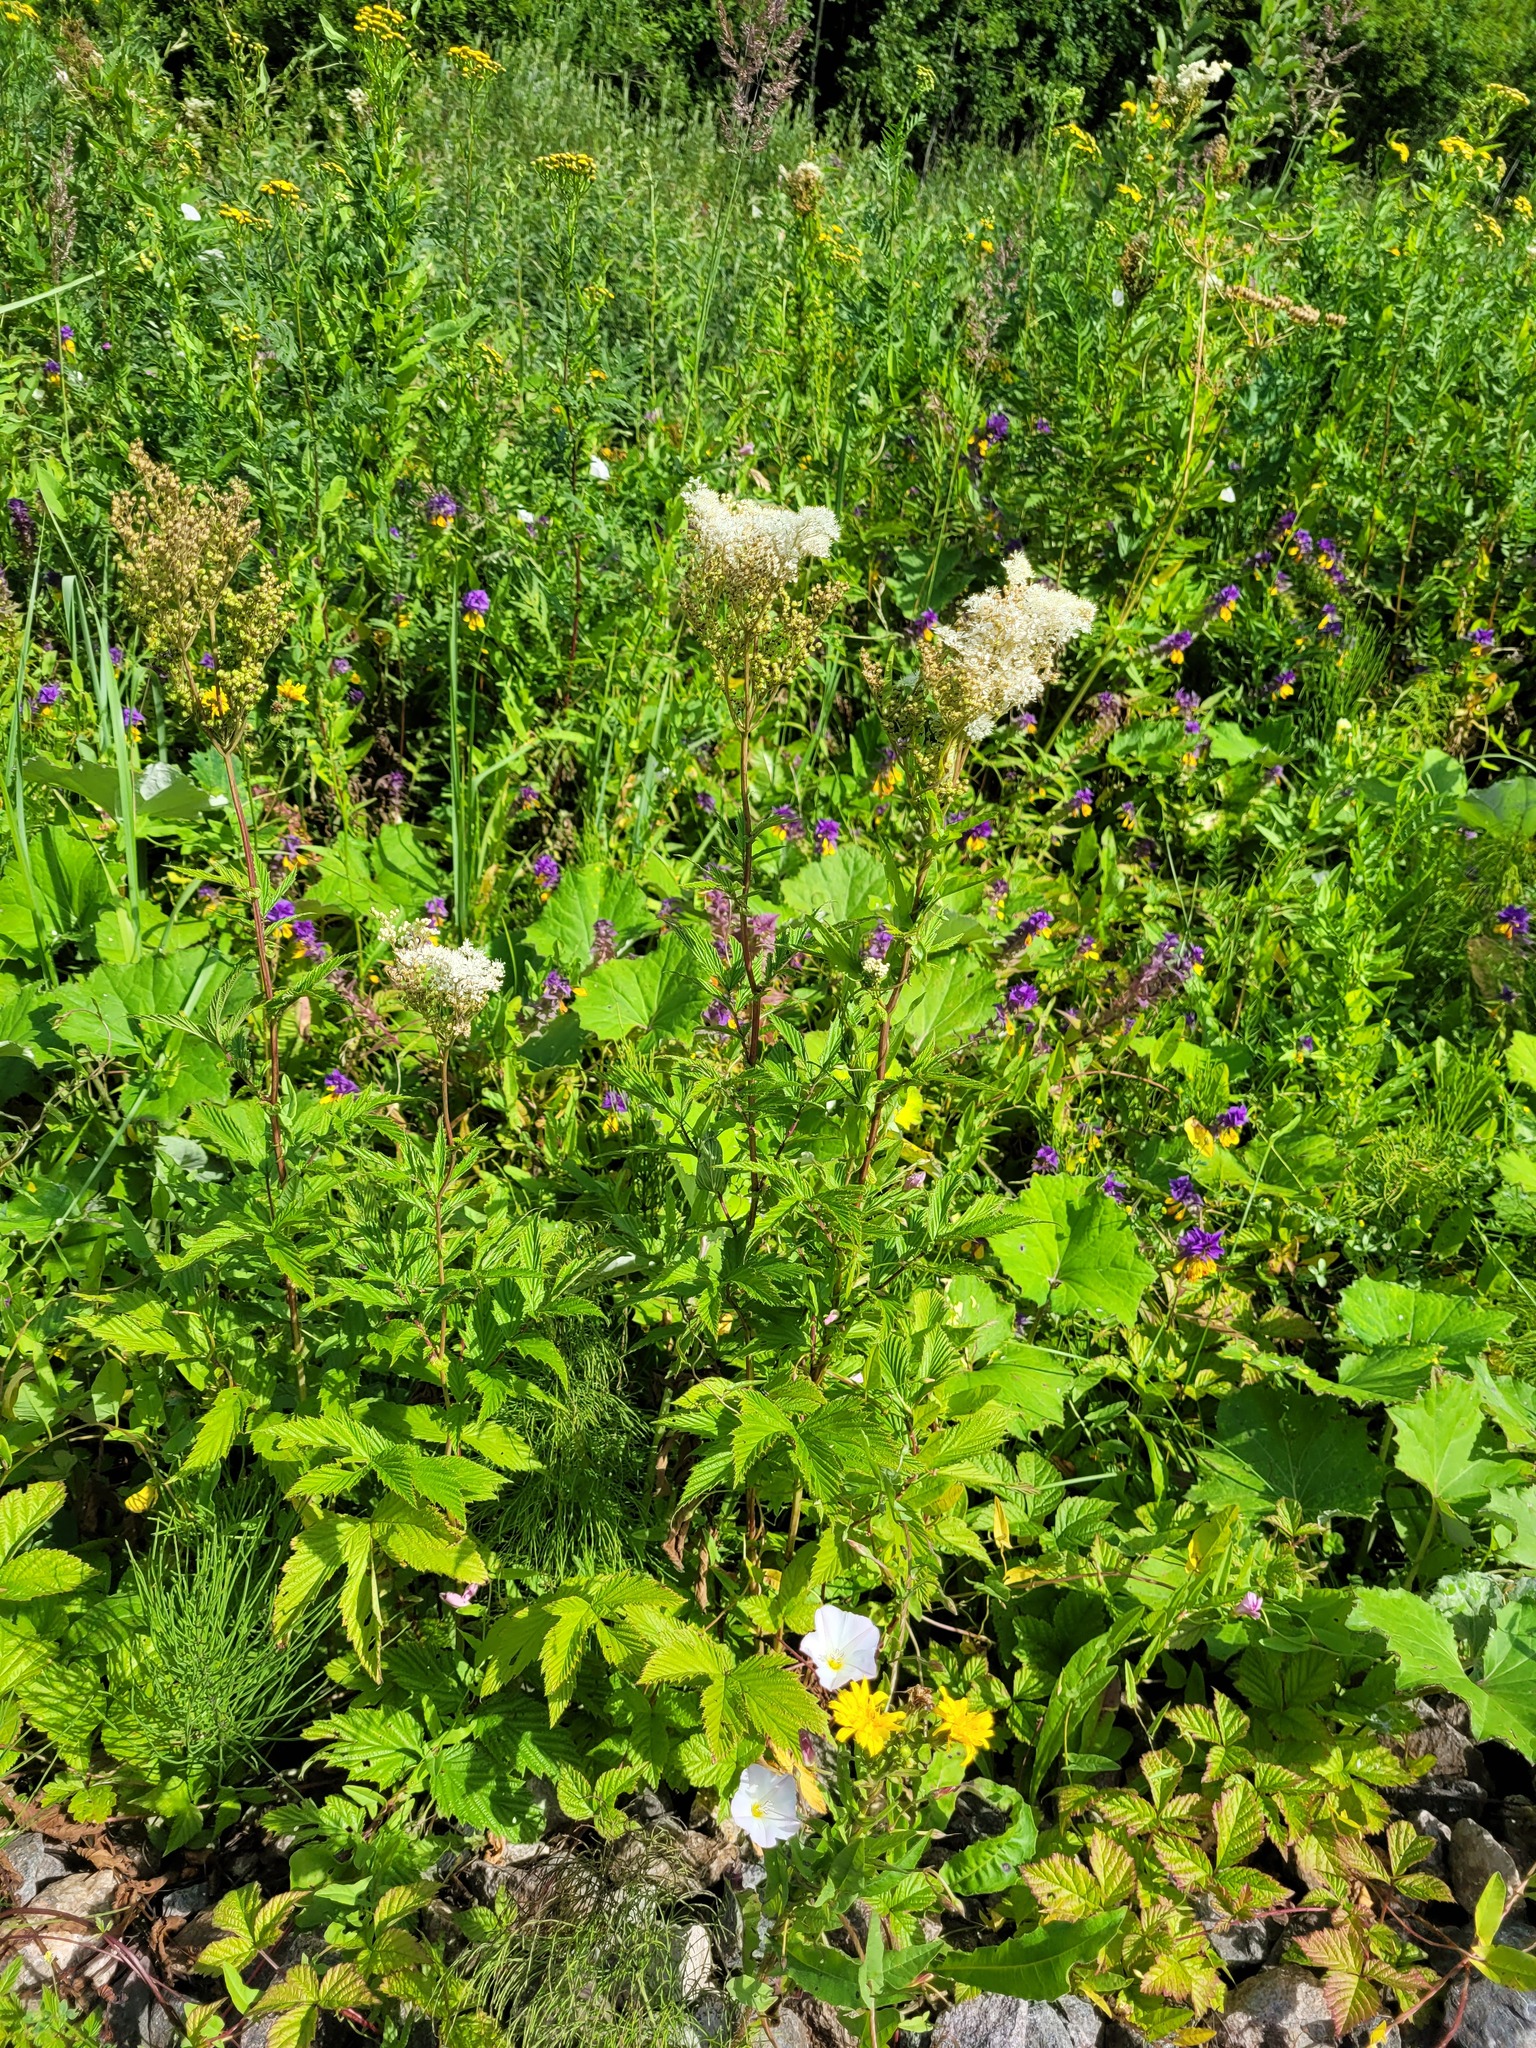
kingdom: Plantae
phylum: Tracheophyta
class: Magnoliopsida
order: Rosales
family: Rosaceae
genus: Filipendula
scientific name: Filipendula ulmaria
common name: Meadowsweet
